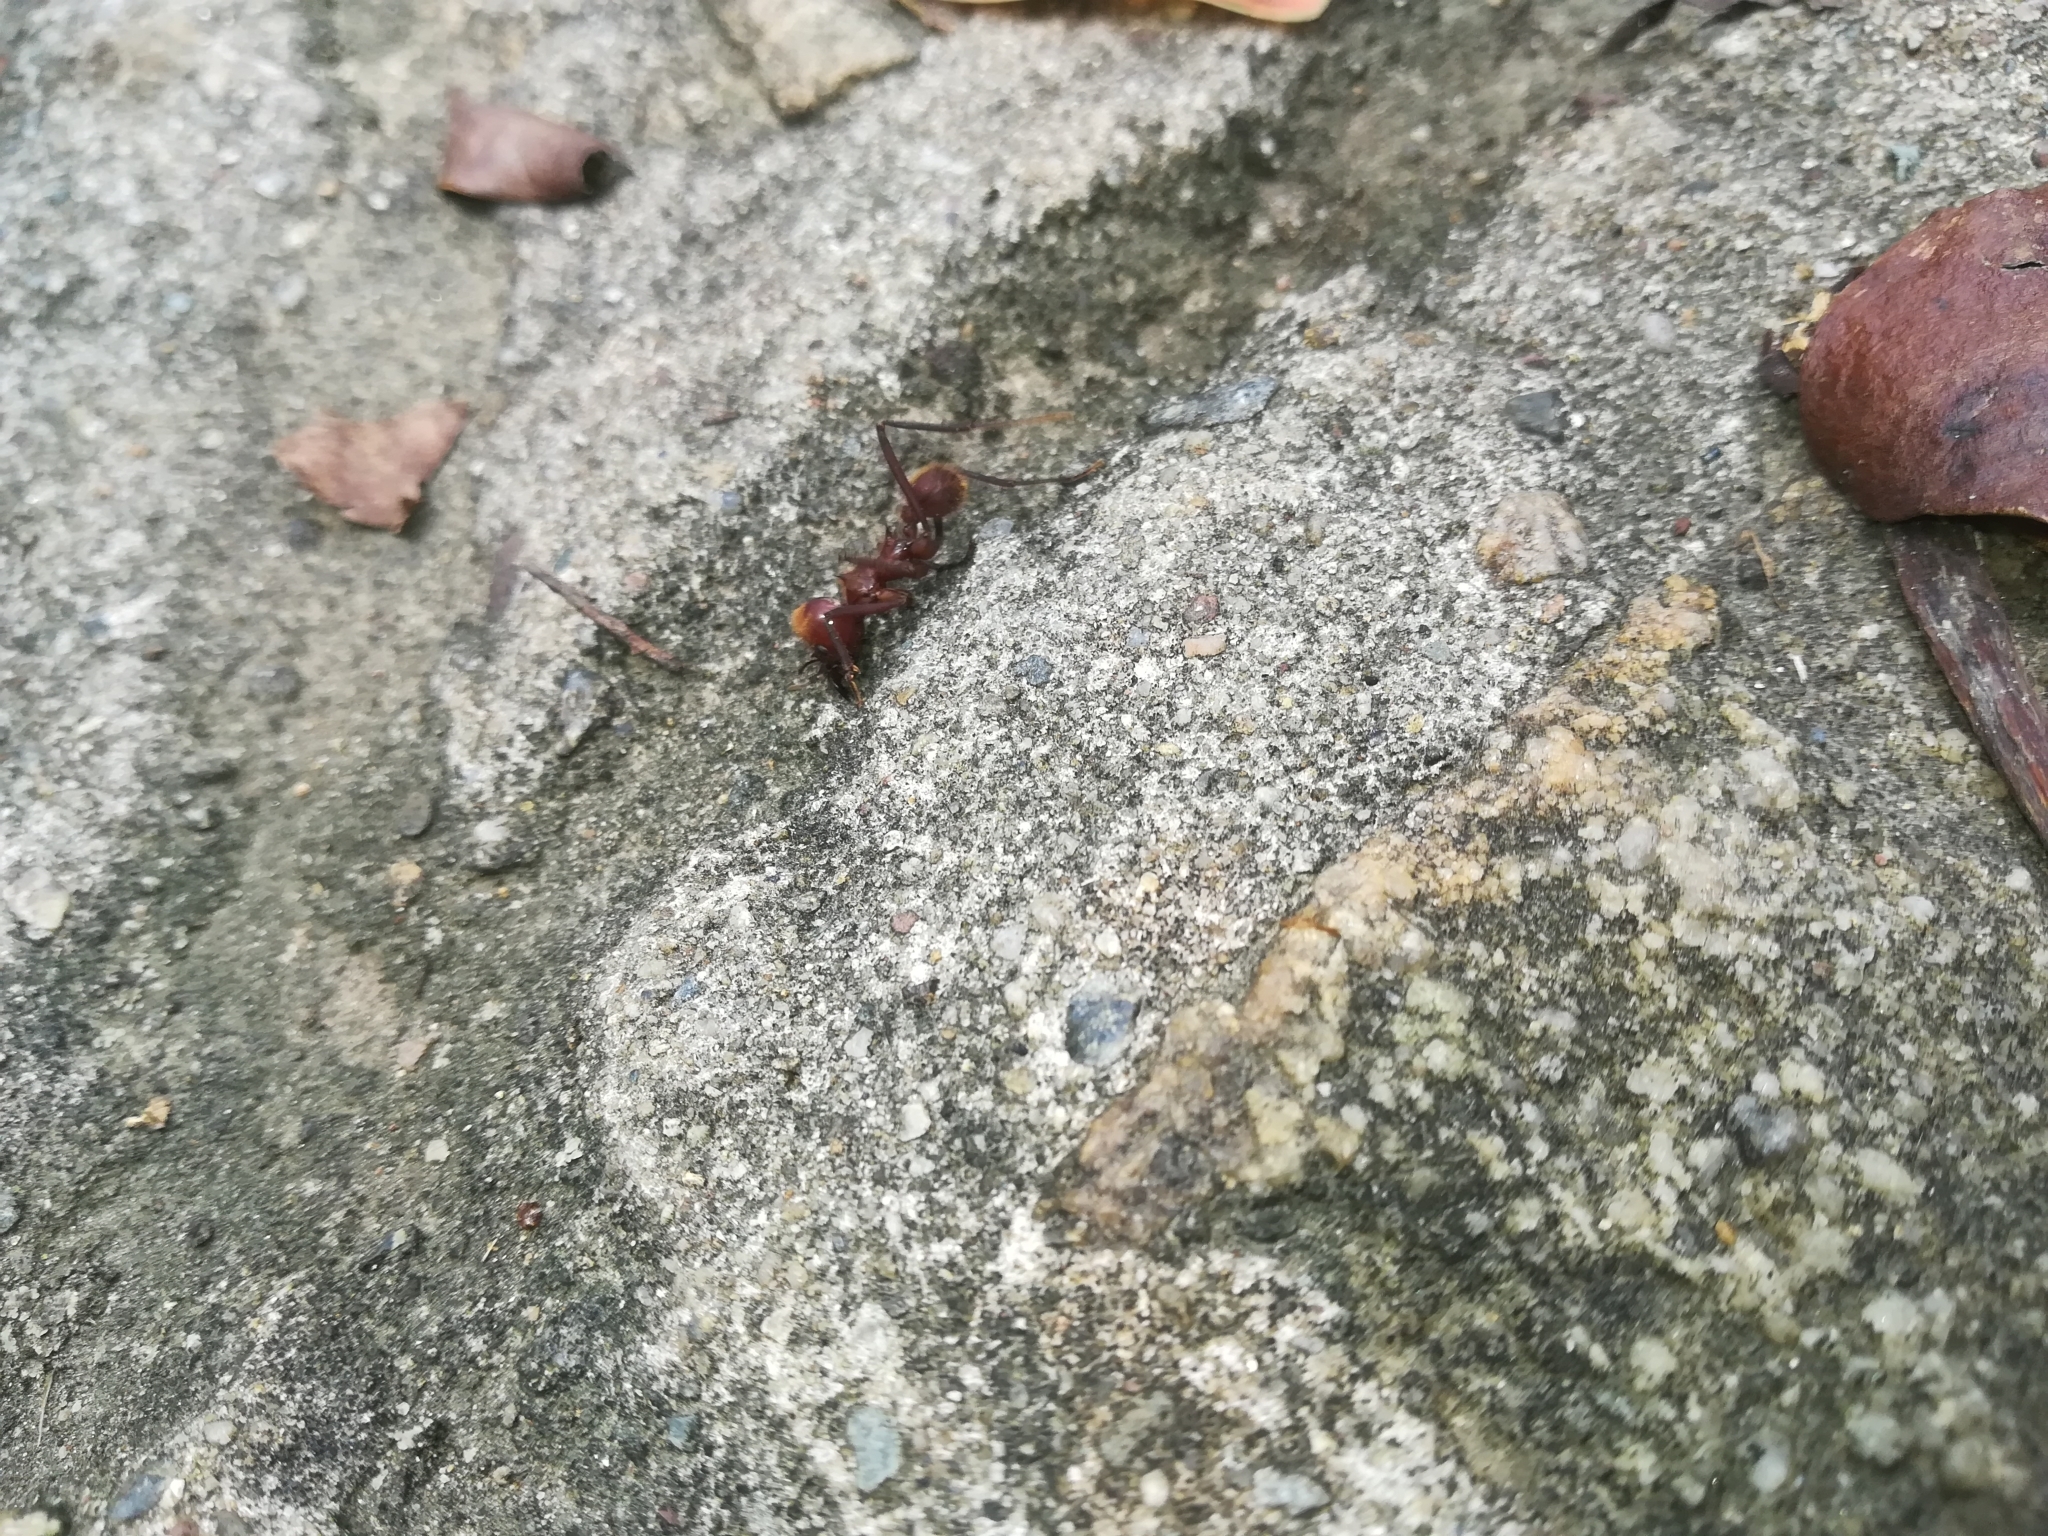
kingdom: Animalia
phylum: Arthropoda
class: Insecta
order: Hymenoptera
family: Formicidae
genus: Atta
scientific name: Atta cephalotes
